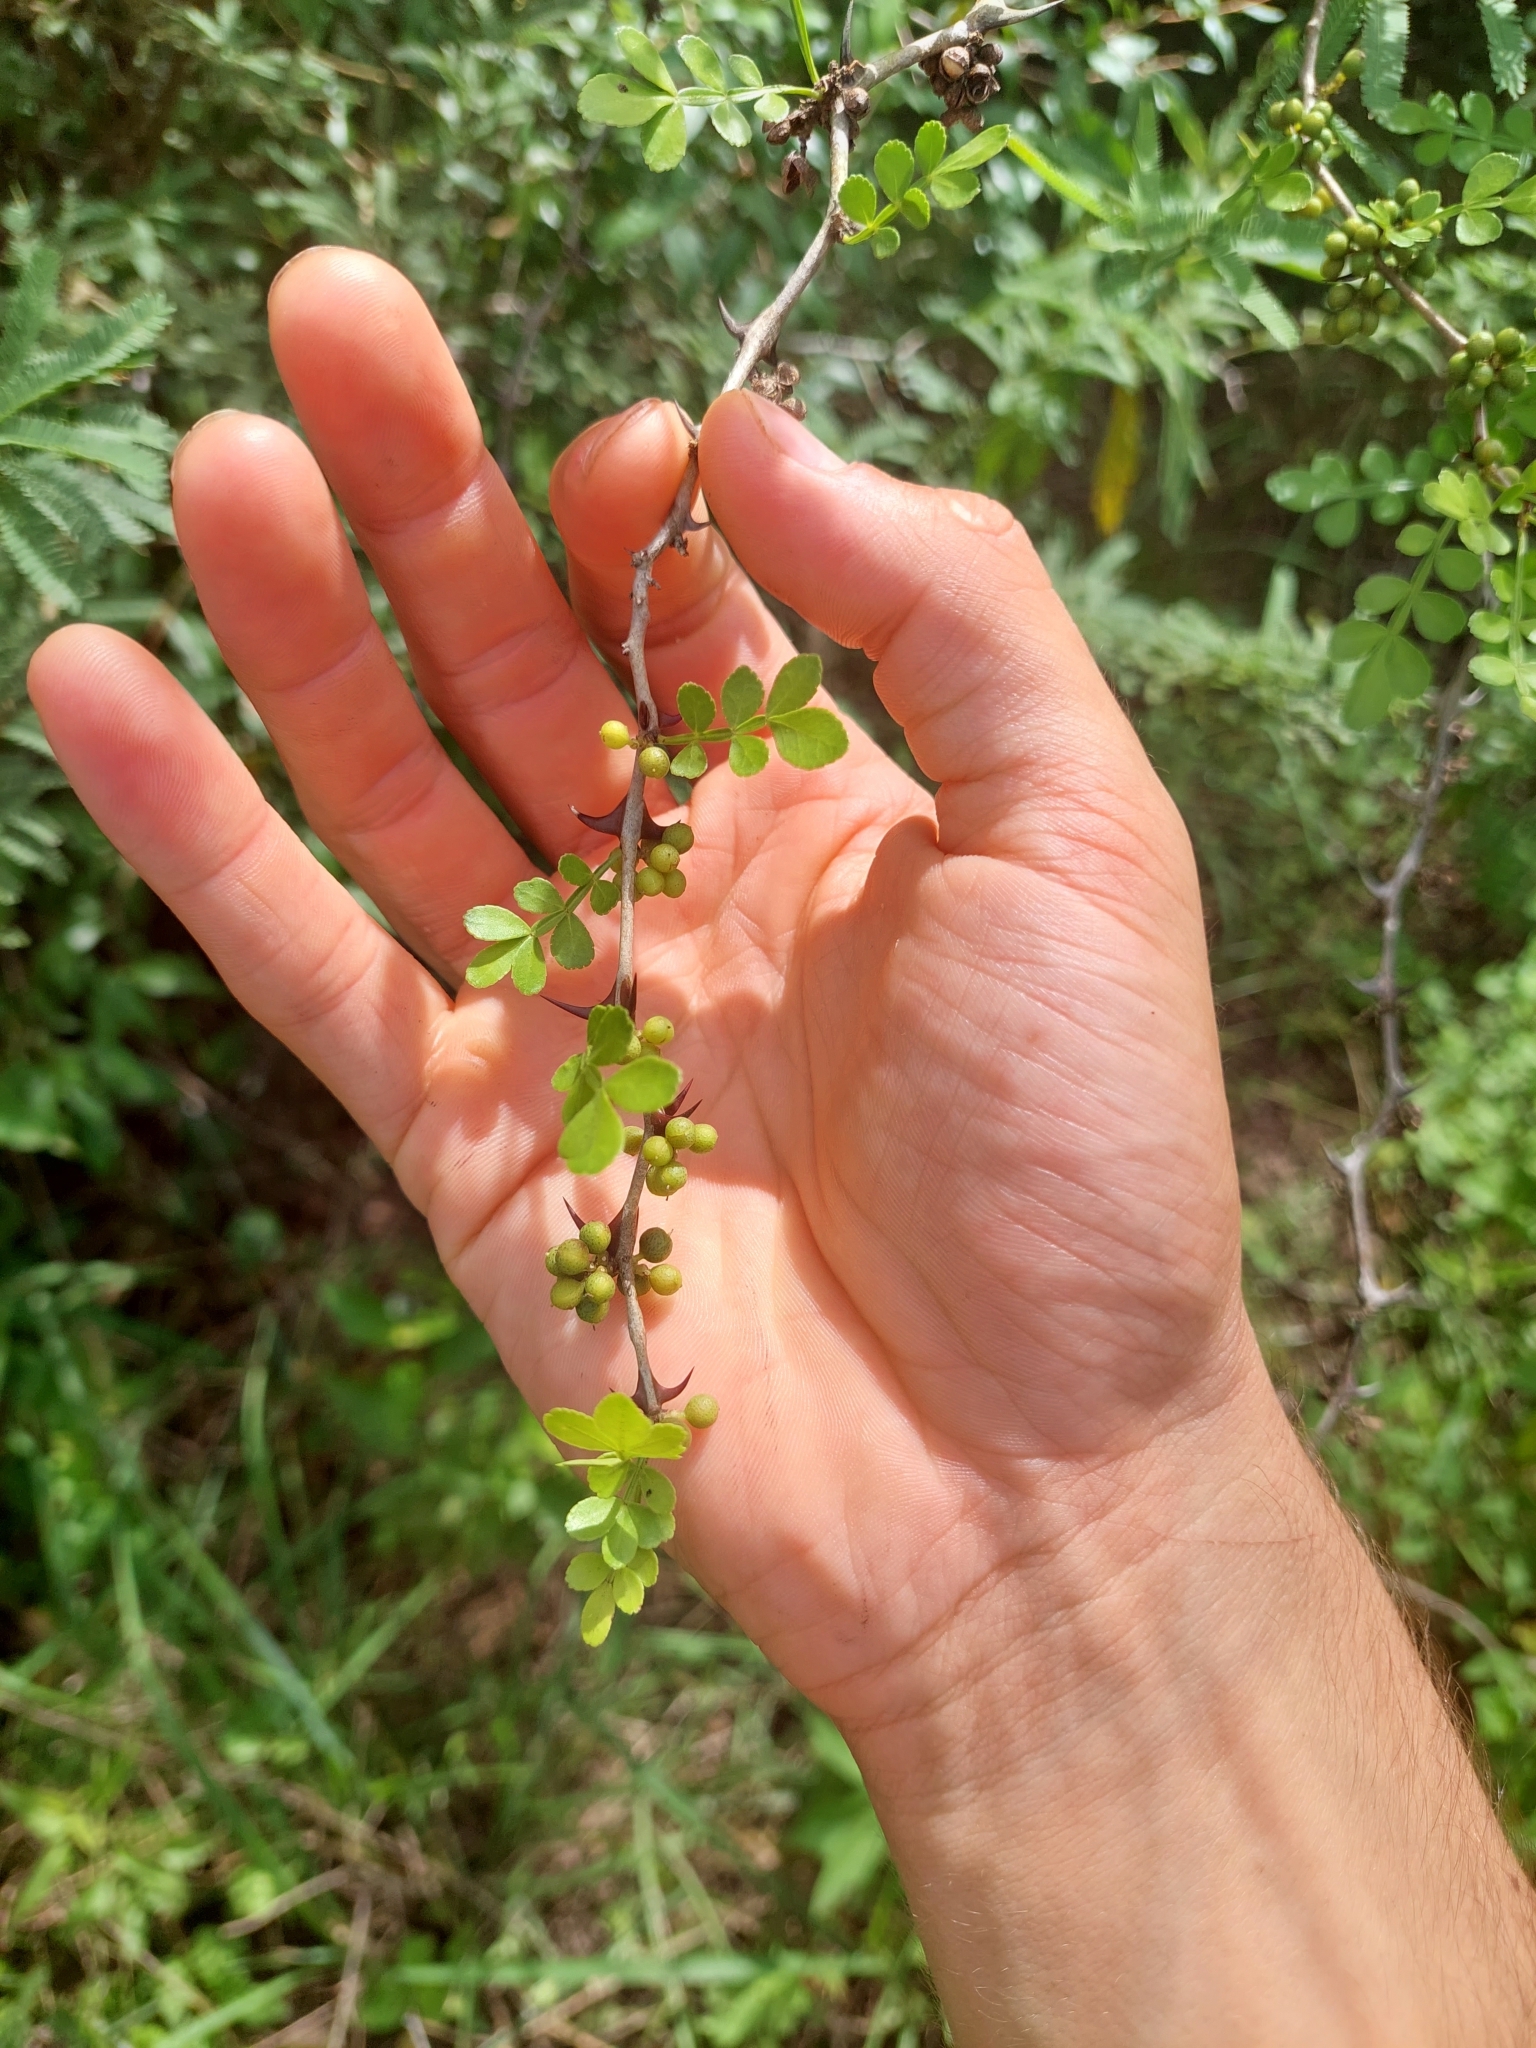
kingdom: Plantae
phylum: Tracheophyta
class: Magnoliopsida
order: Sapindales
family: Rutaceae
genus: Zanthoxylum
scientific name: Zanthoxylum fagara
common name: Lime prickly-ash
